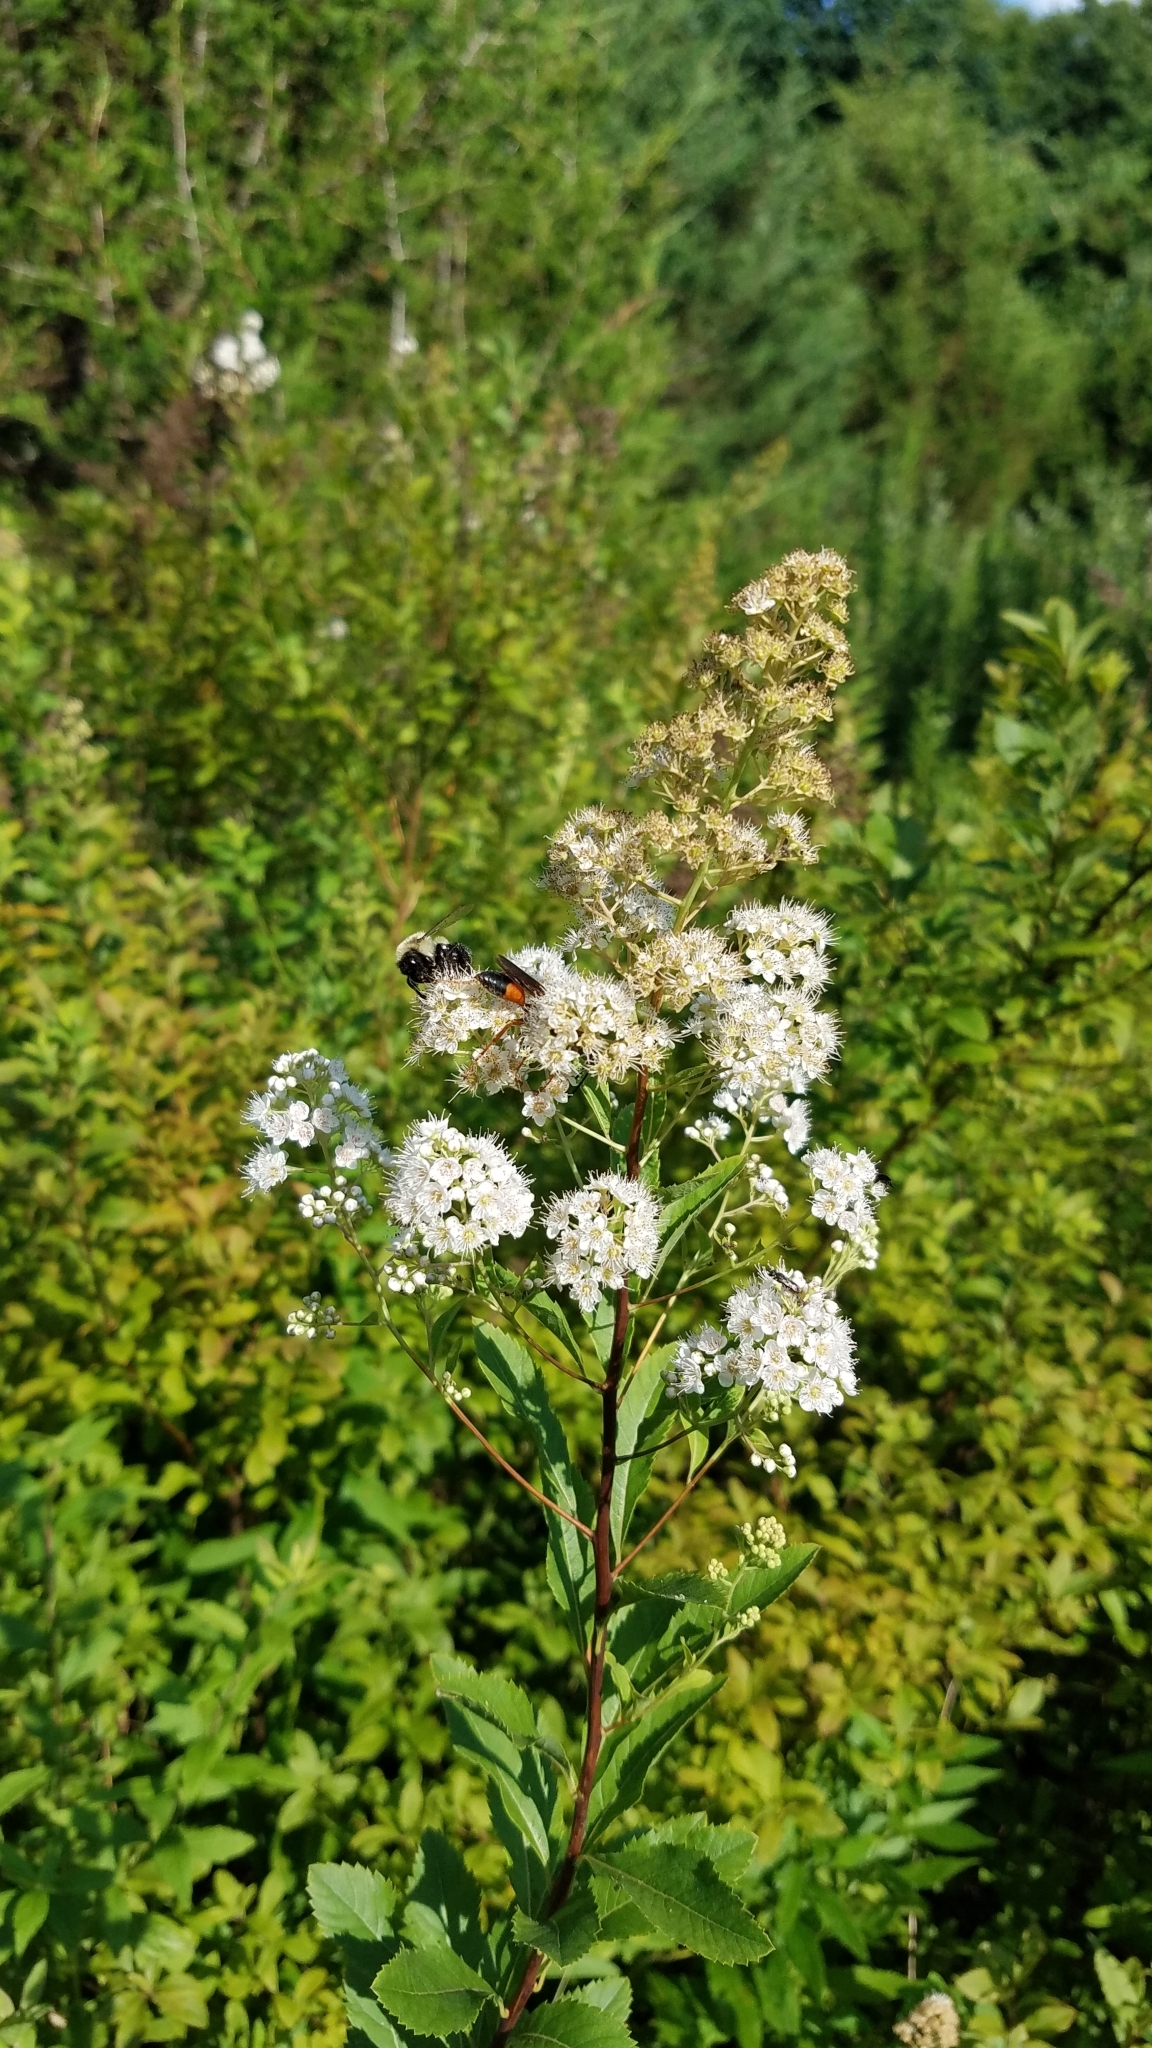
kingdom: Plantae
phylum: Tracheophyta
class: Magnoliopsida
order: Rosales
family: Rosaceae
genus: Spiraea
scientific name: Spiraea alba
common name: Pale bridewort
